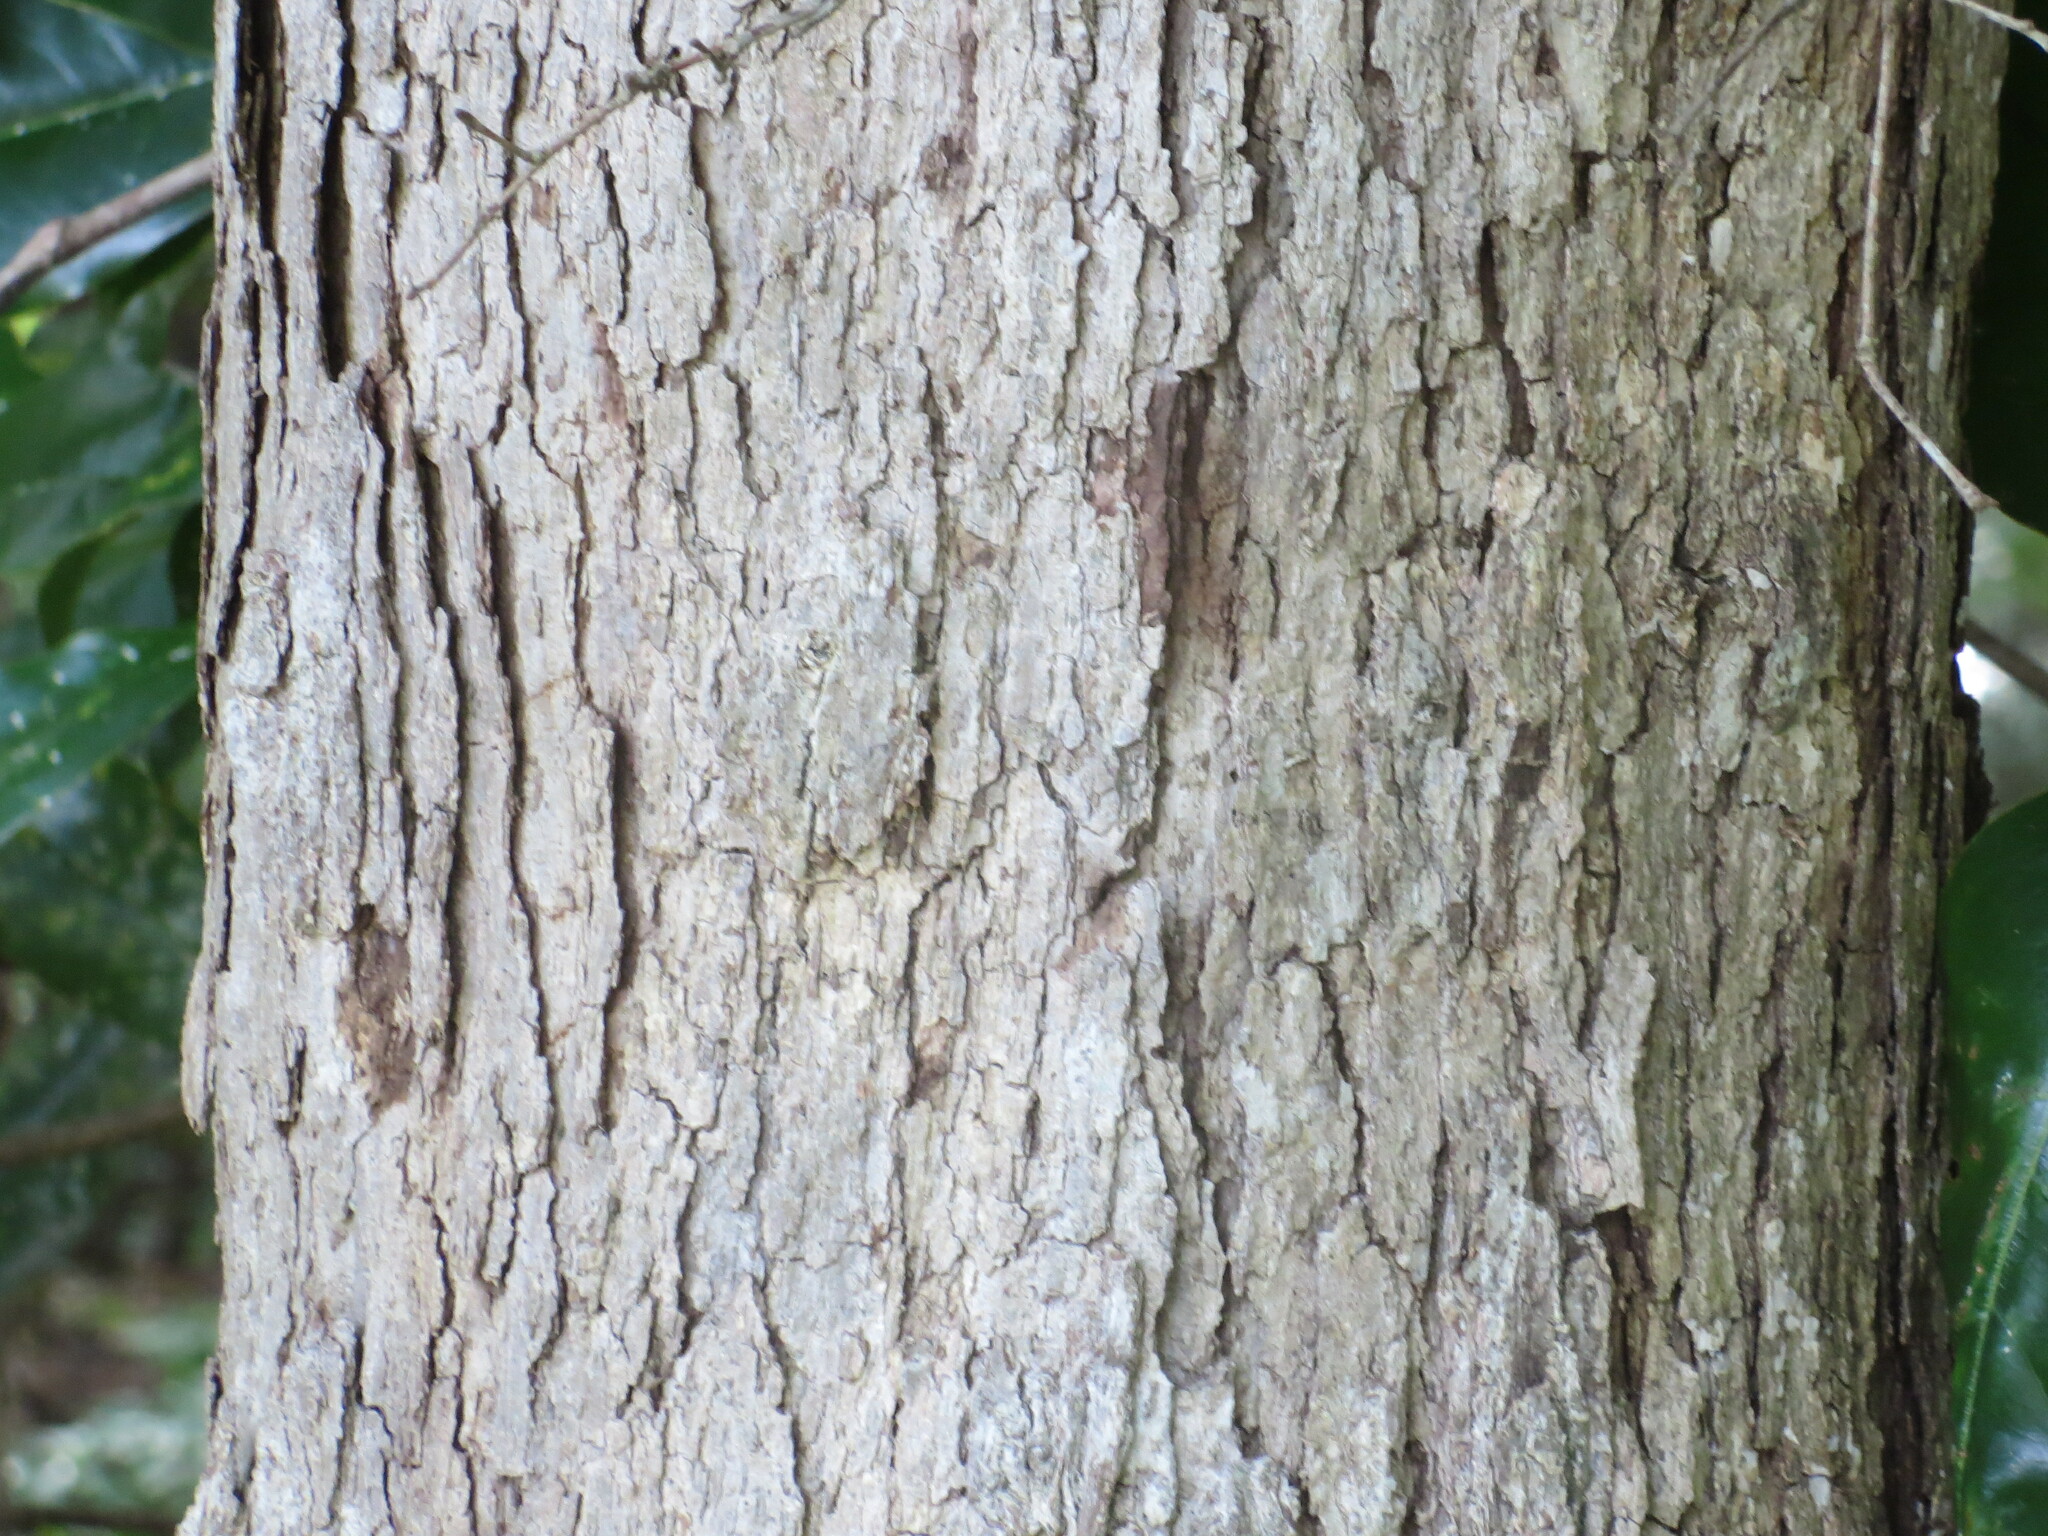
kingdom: Plantae
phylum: Tracheophyta
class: Magnoliopsida
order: Fagales
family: Fagaceae
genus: Quercus
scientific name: Quercus alba
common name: White oak
